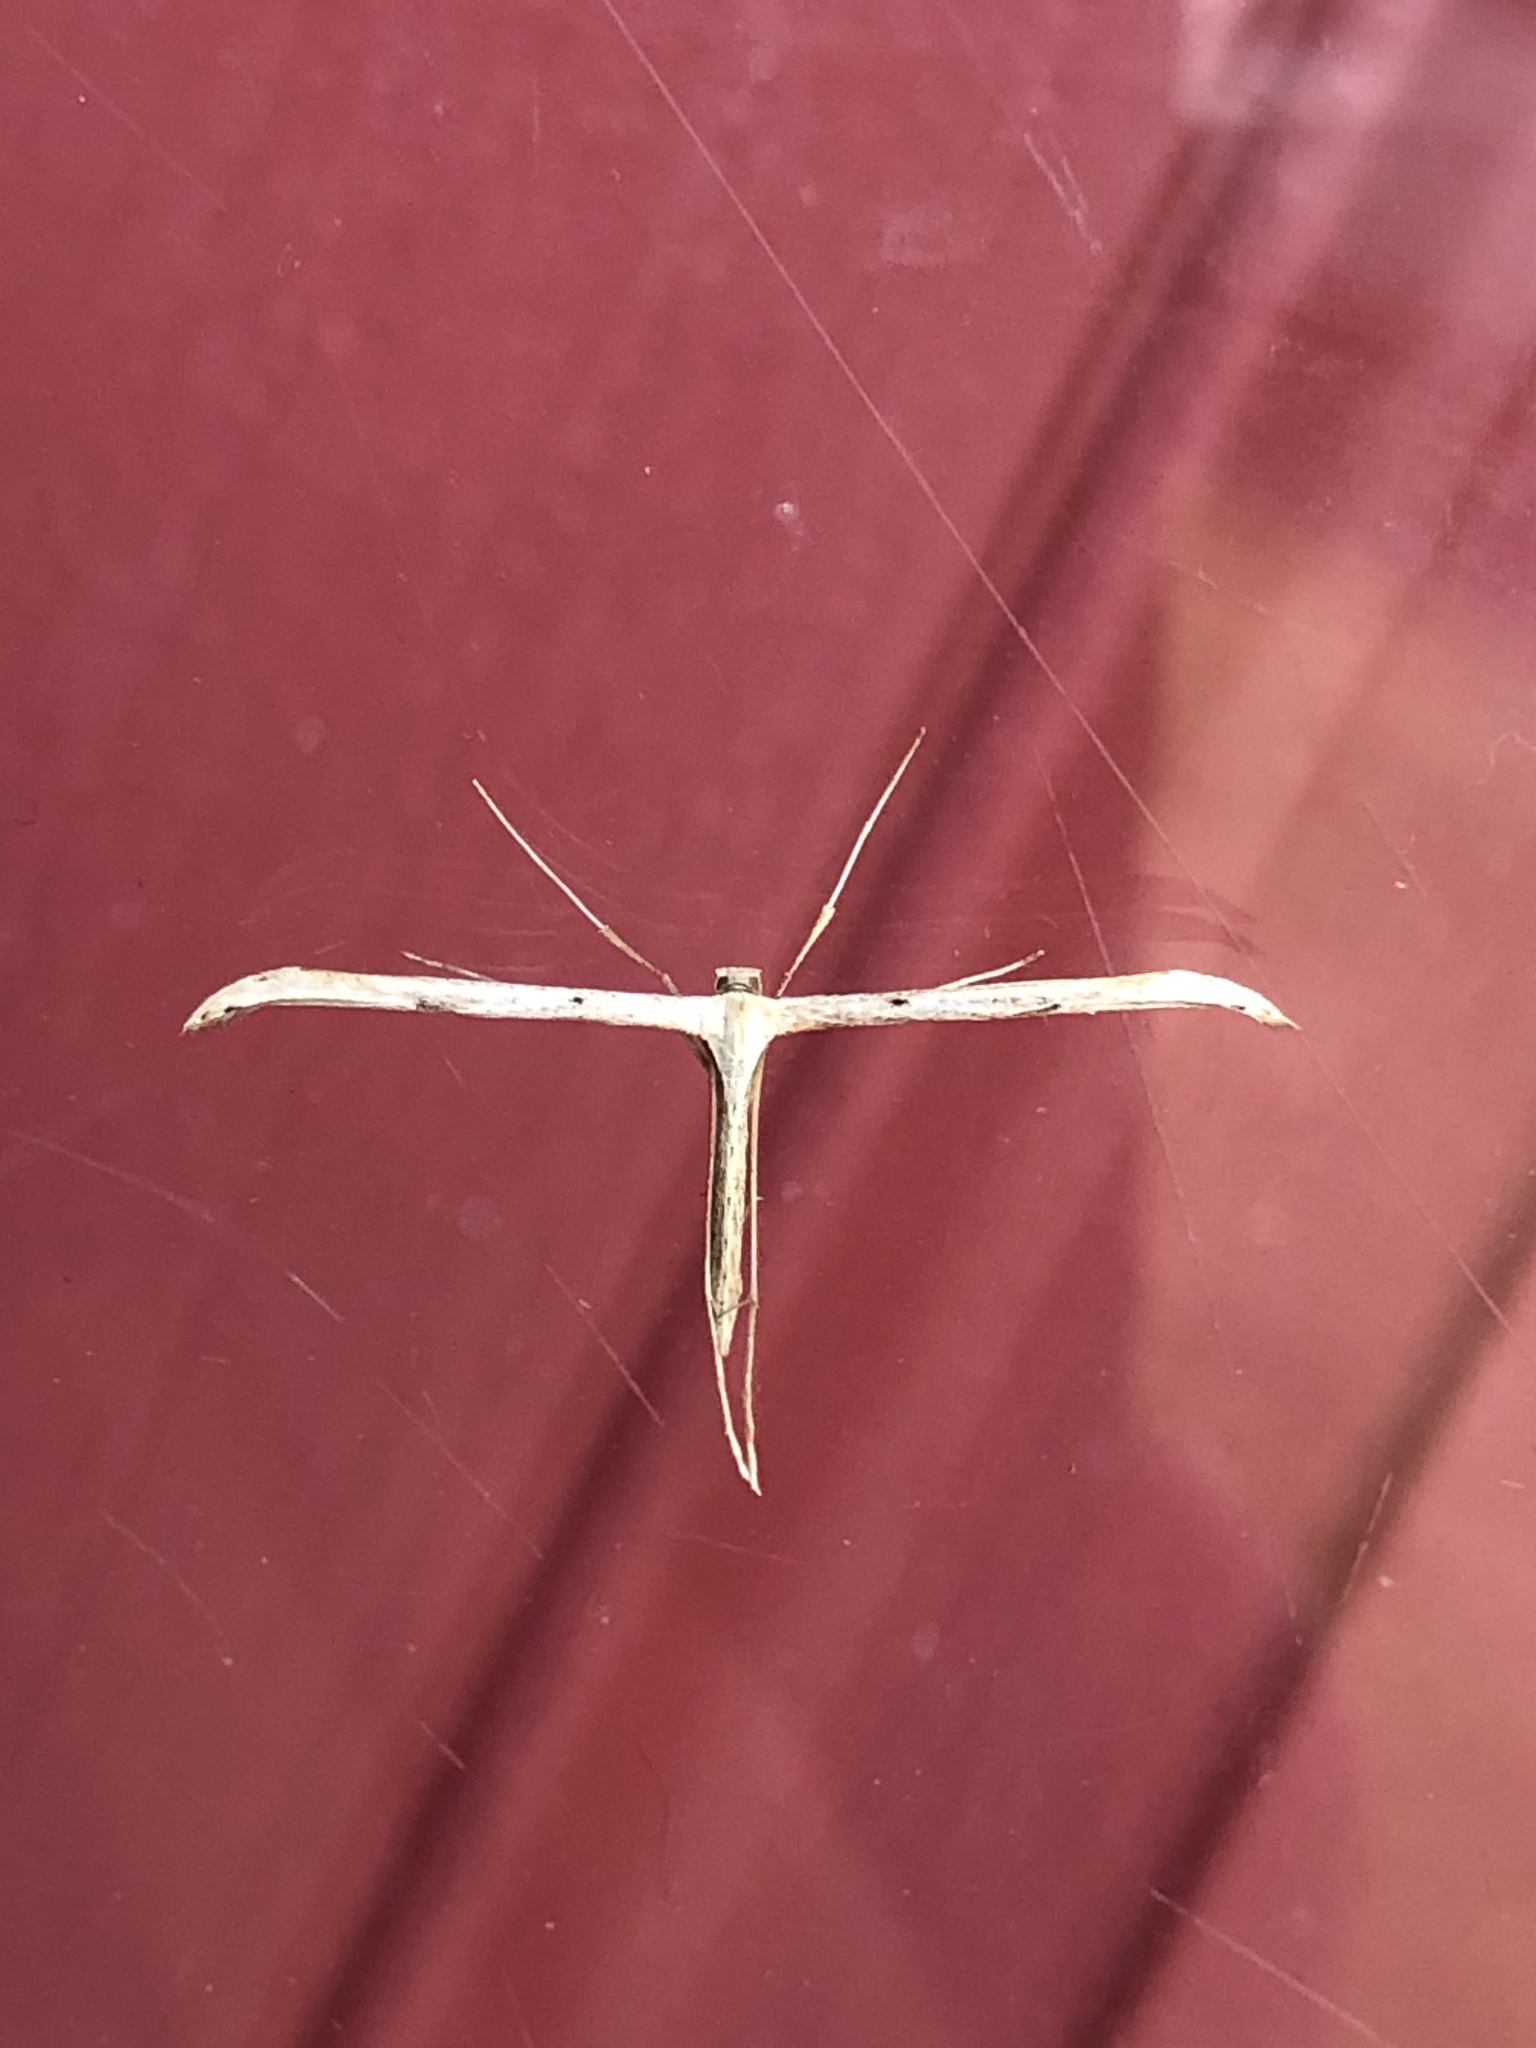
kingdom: Animalia
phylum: Arthropoda
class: Insecta
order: Lepidoptera
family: Pterophoridae
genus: Emmelina
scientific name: Emmelina monodactyla
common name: Common plume
